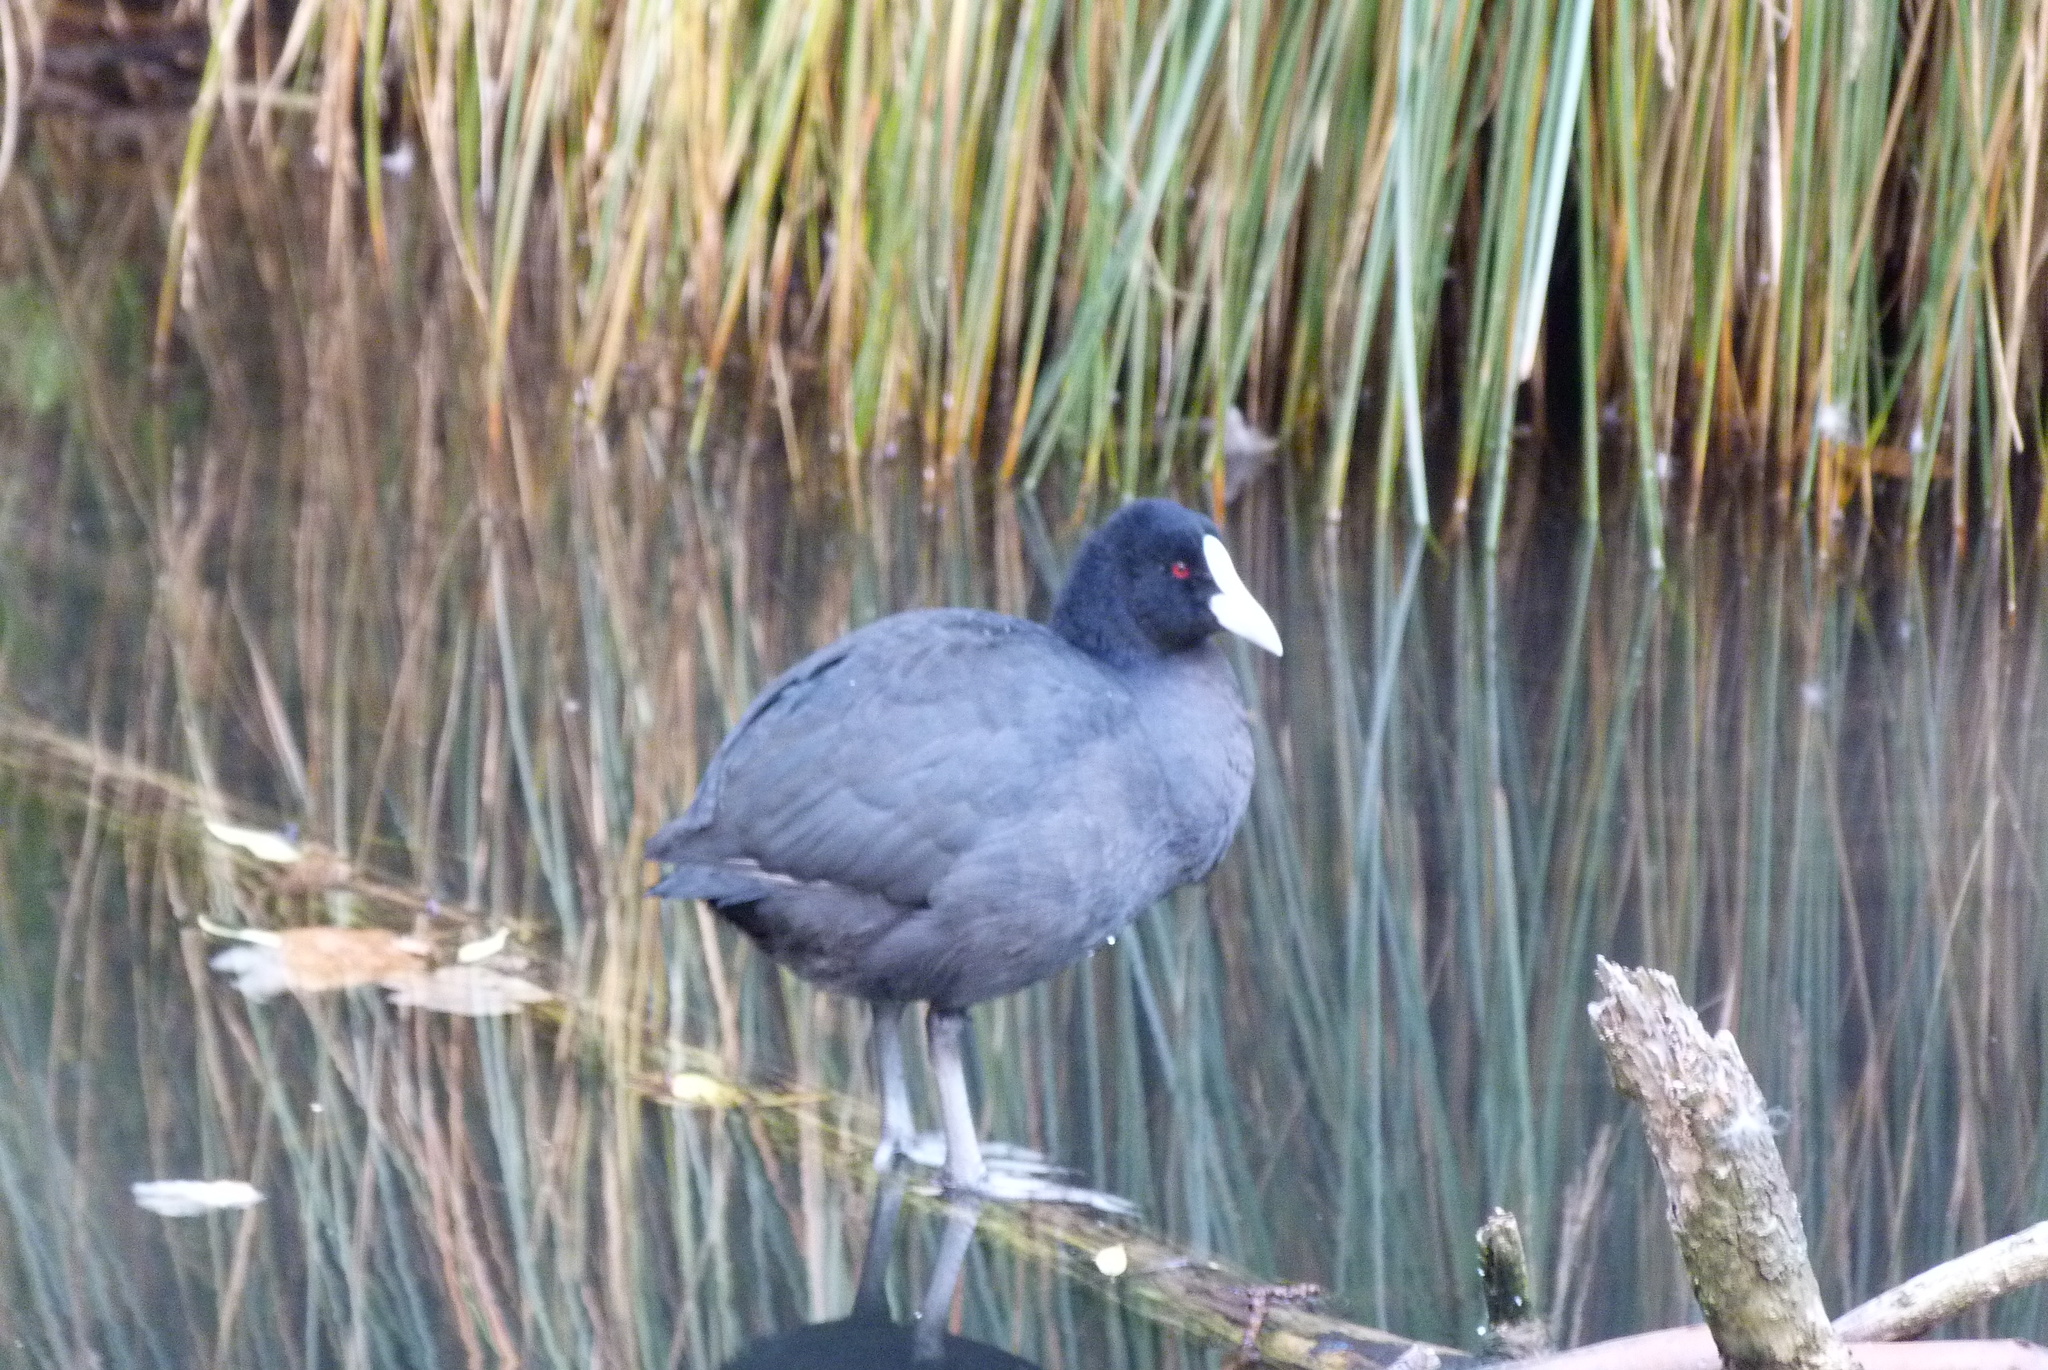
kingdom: Animalia
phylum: Chordata
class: Aves
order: Gruiformes
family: Rallidae
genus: Fulica
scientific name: Fulica atra
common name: Eurasian coot
